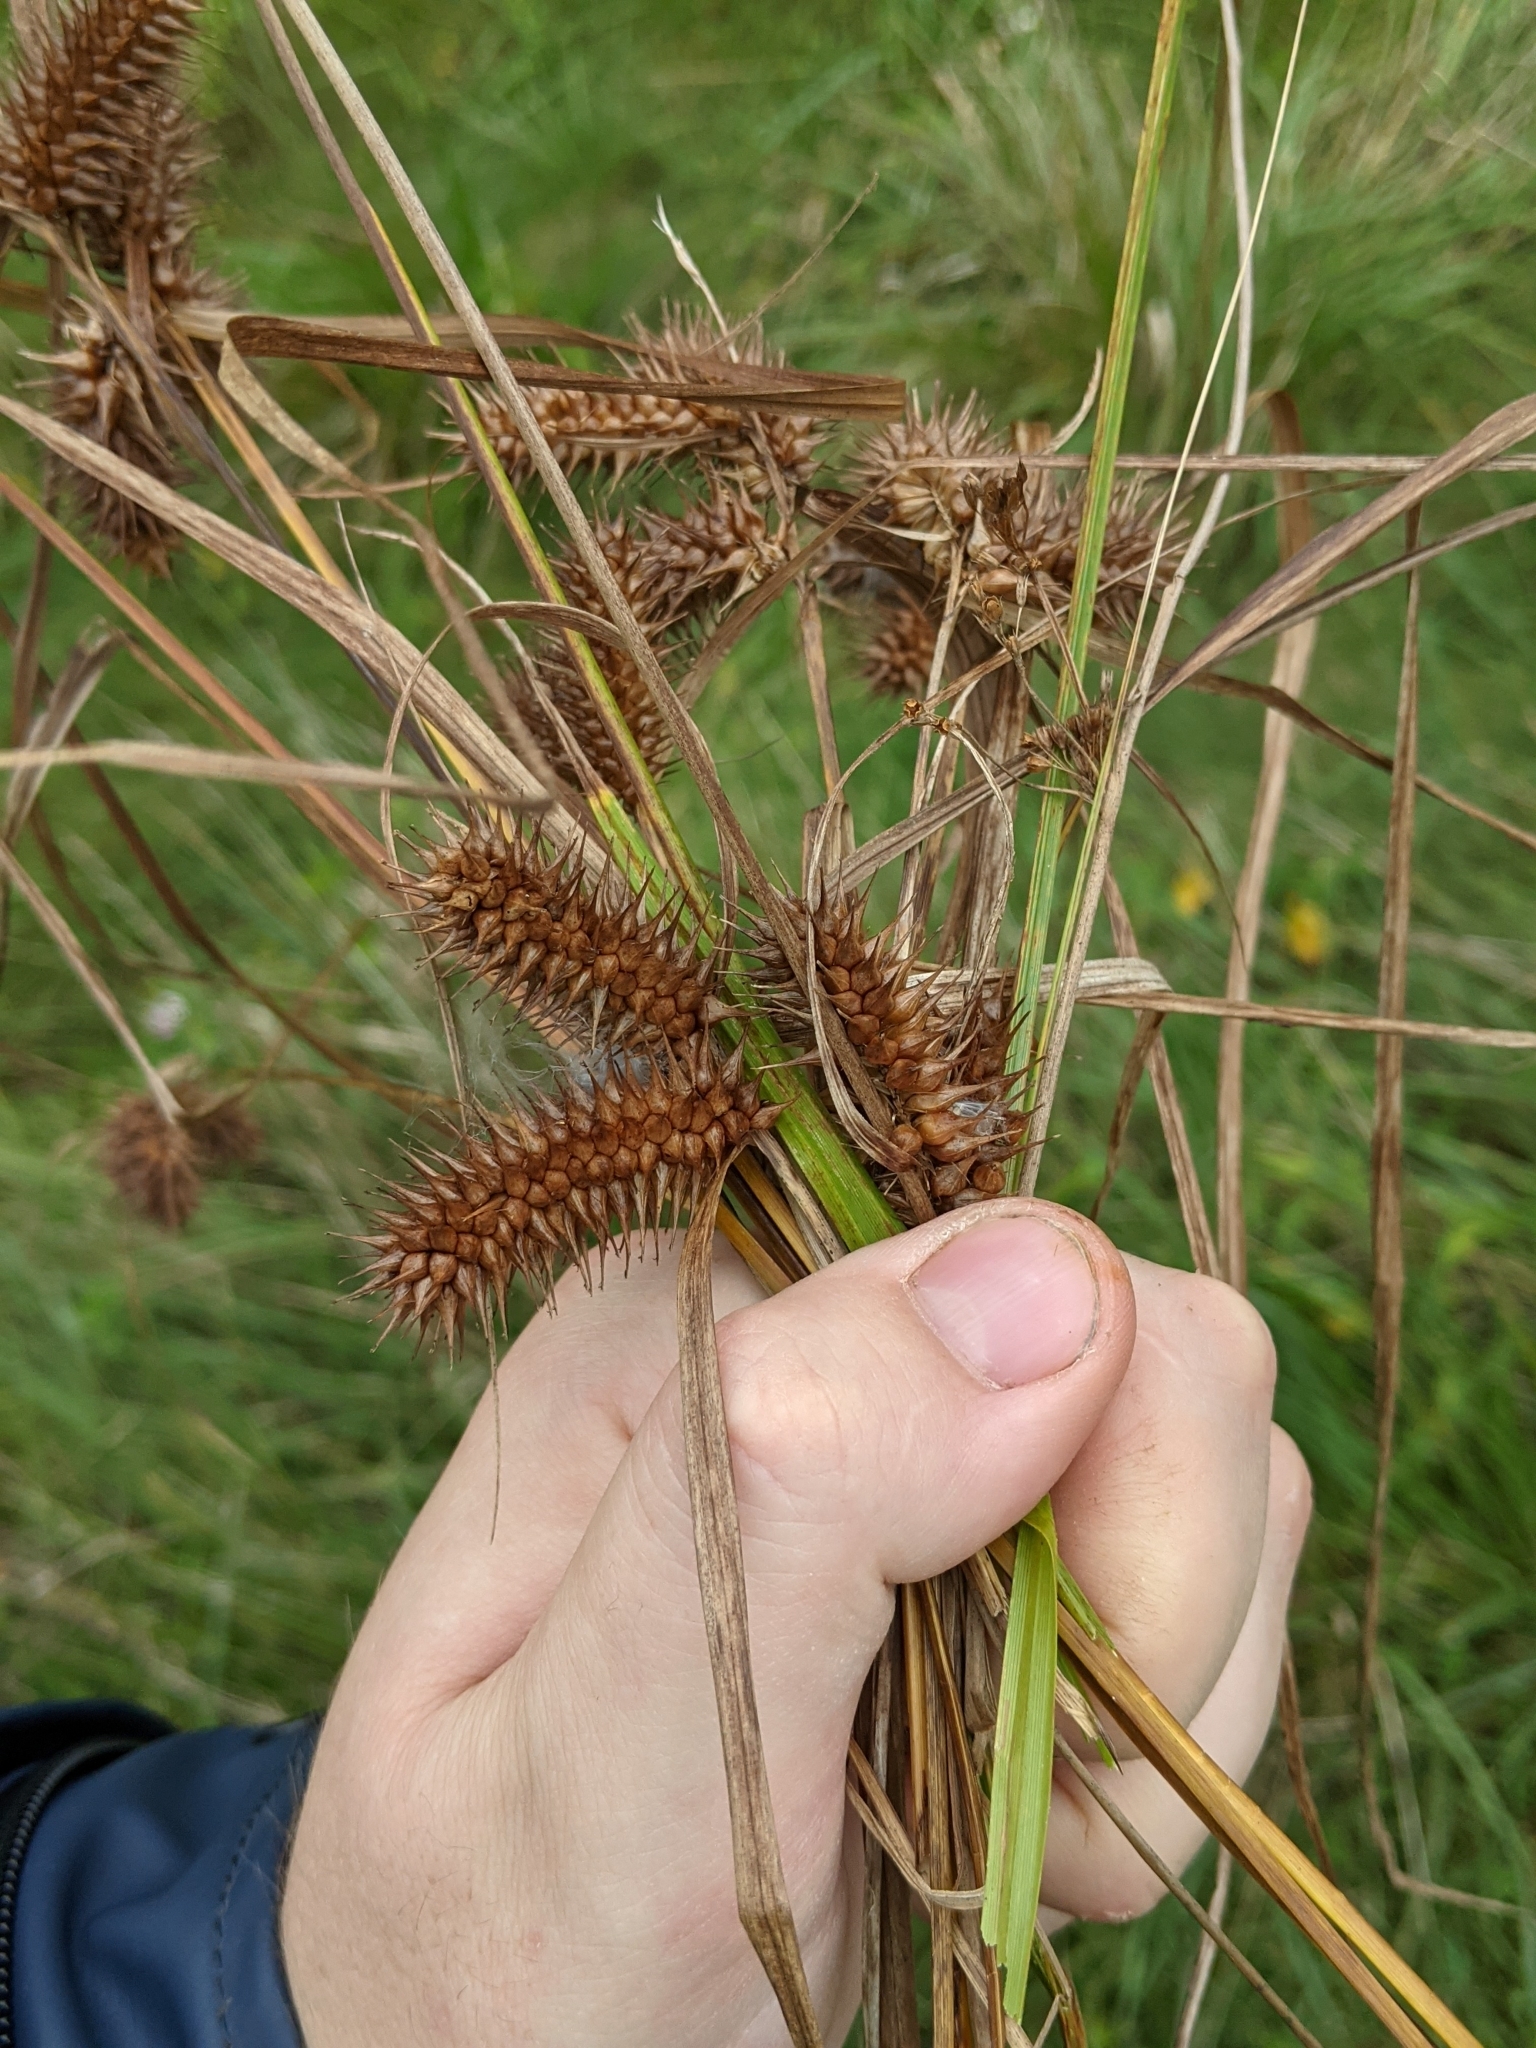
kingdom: Plantae
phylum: Tracheophyta
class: Liliopsida
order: Poales
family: Cyperaceae
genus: Carex
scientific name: Carex lurida
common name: Sallow sedge
